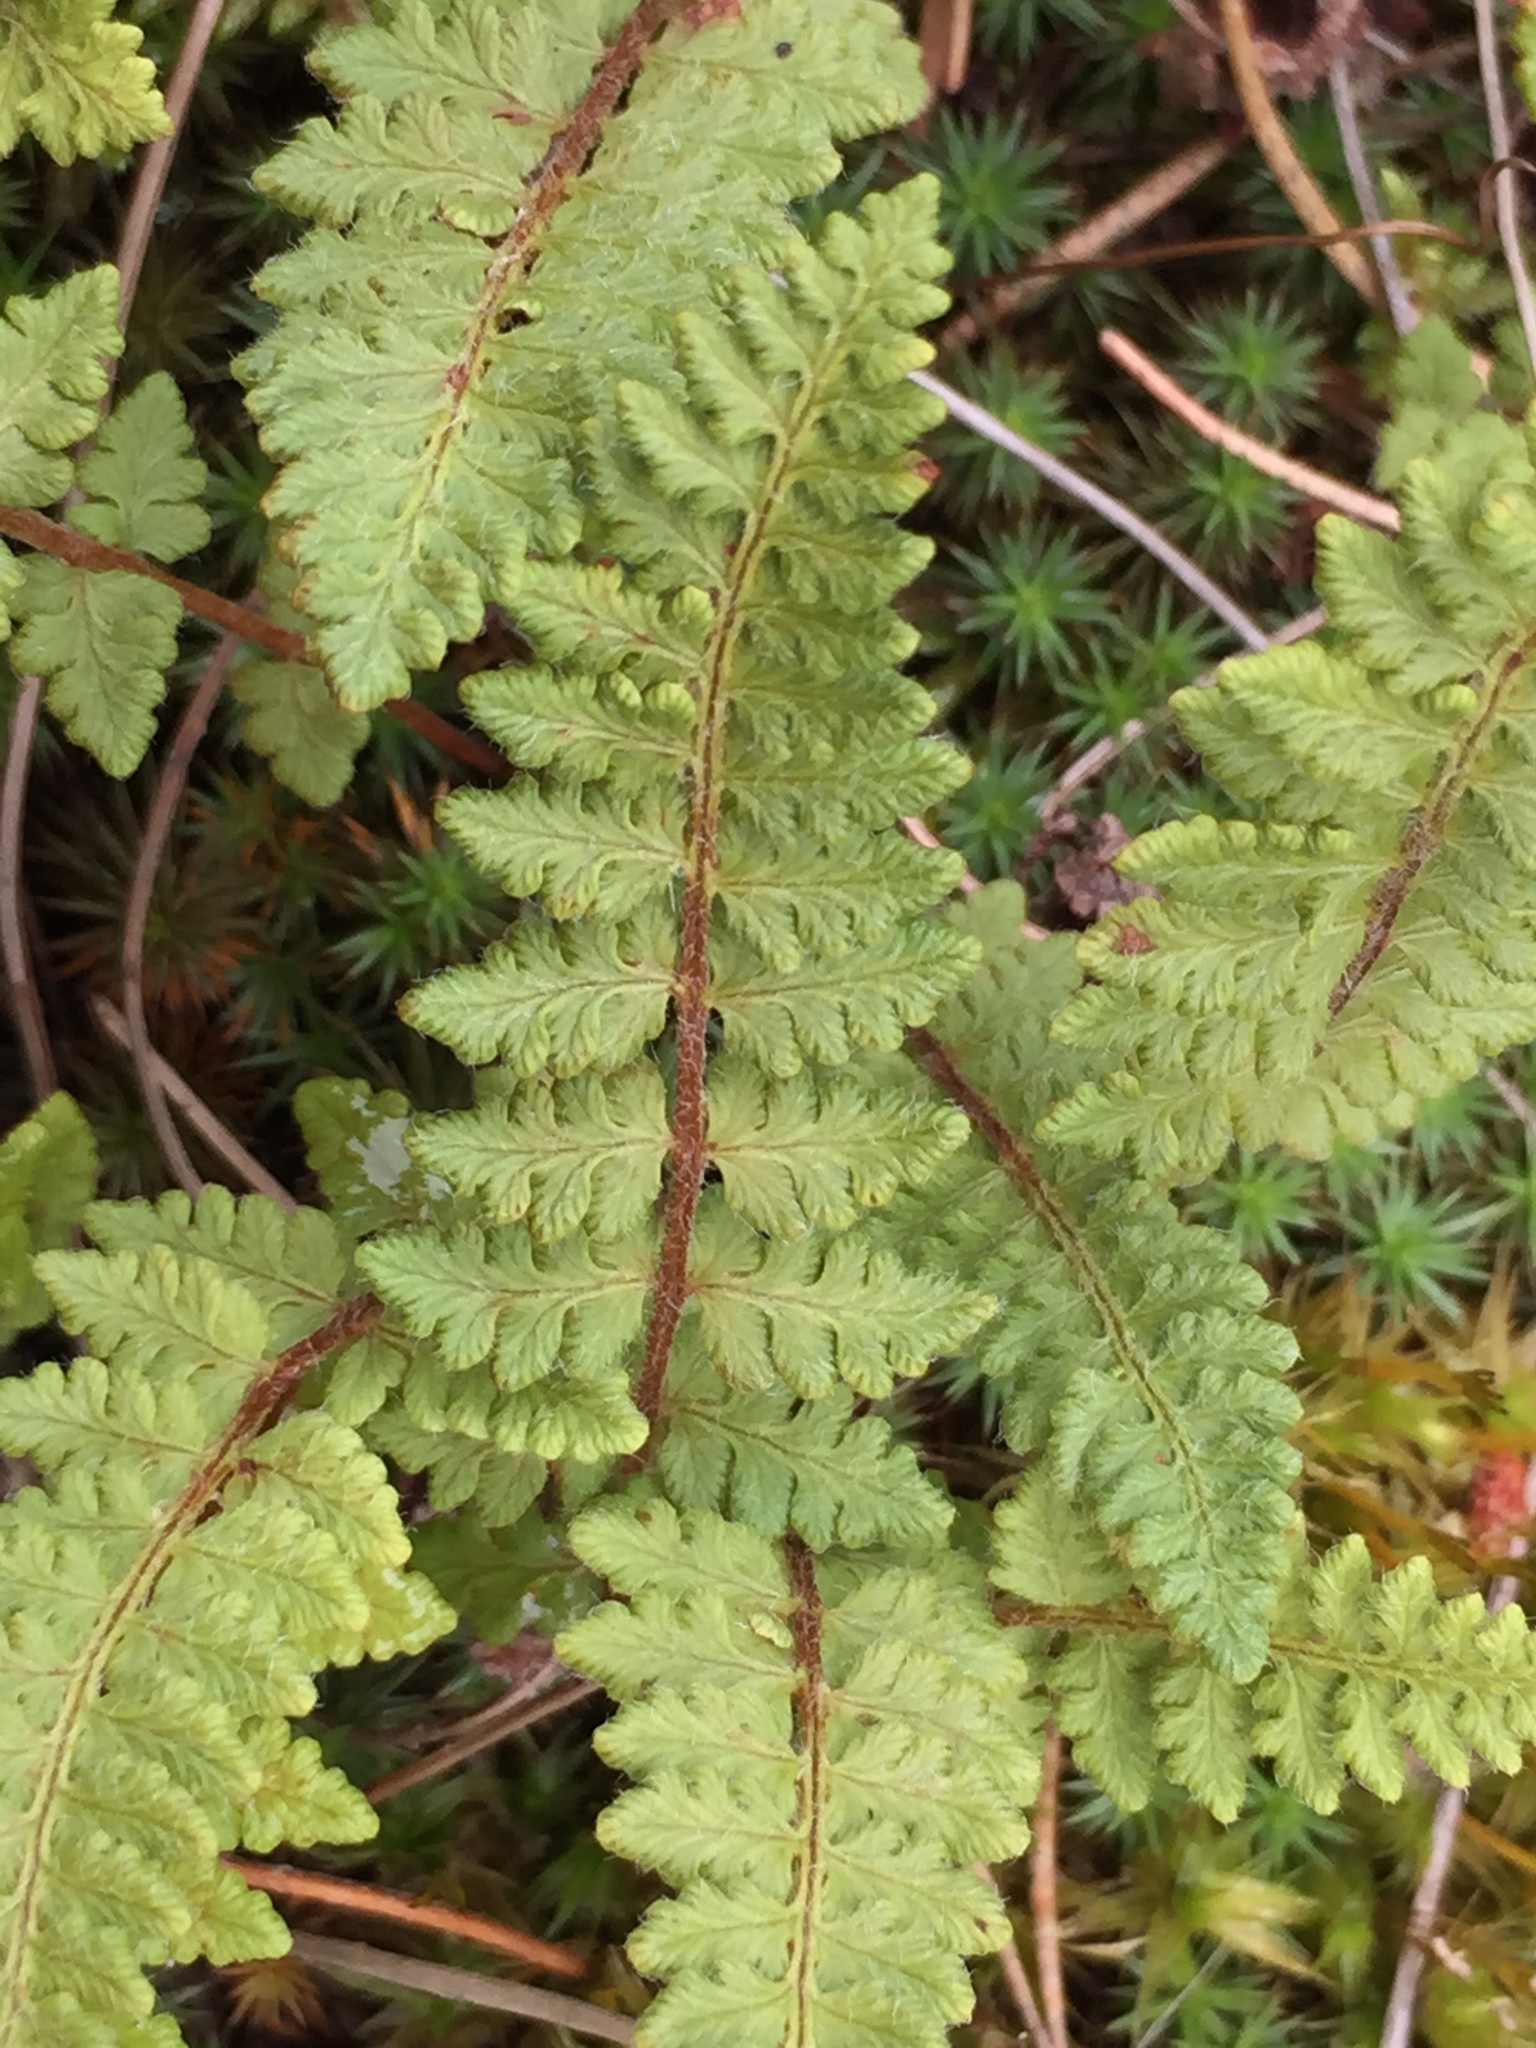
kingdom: Plantae
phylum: Tracheophyta
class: Polypodiopsida
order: Polypodiales
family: Woodsiaceae
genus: Woodsia
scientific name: Woodsia ilvensis
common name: Fragrant woodsia
